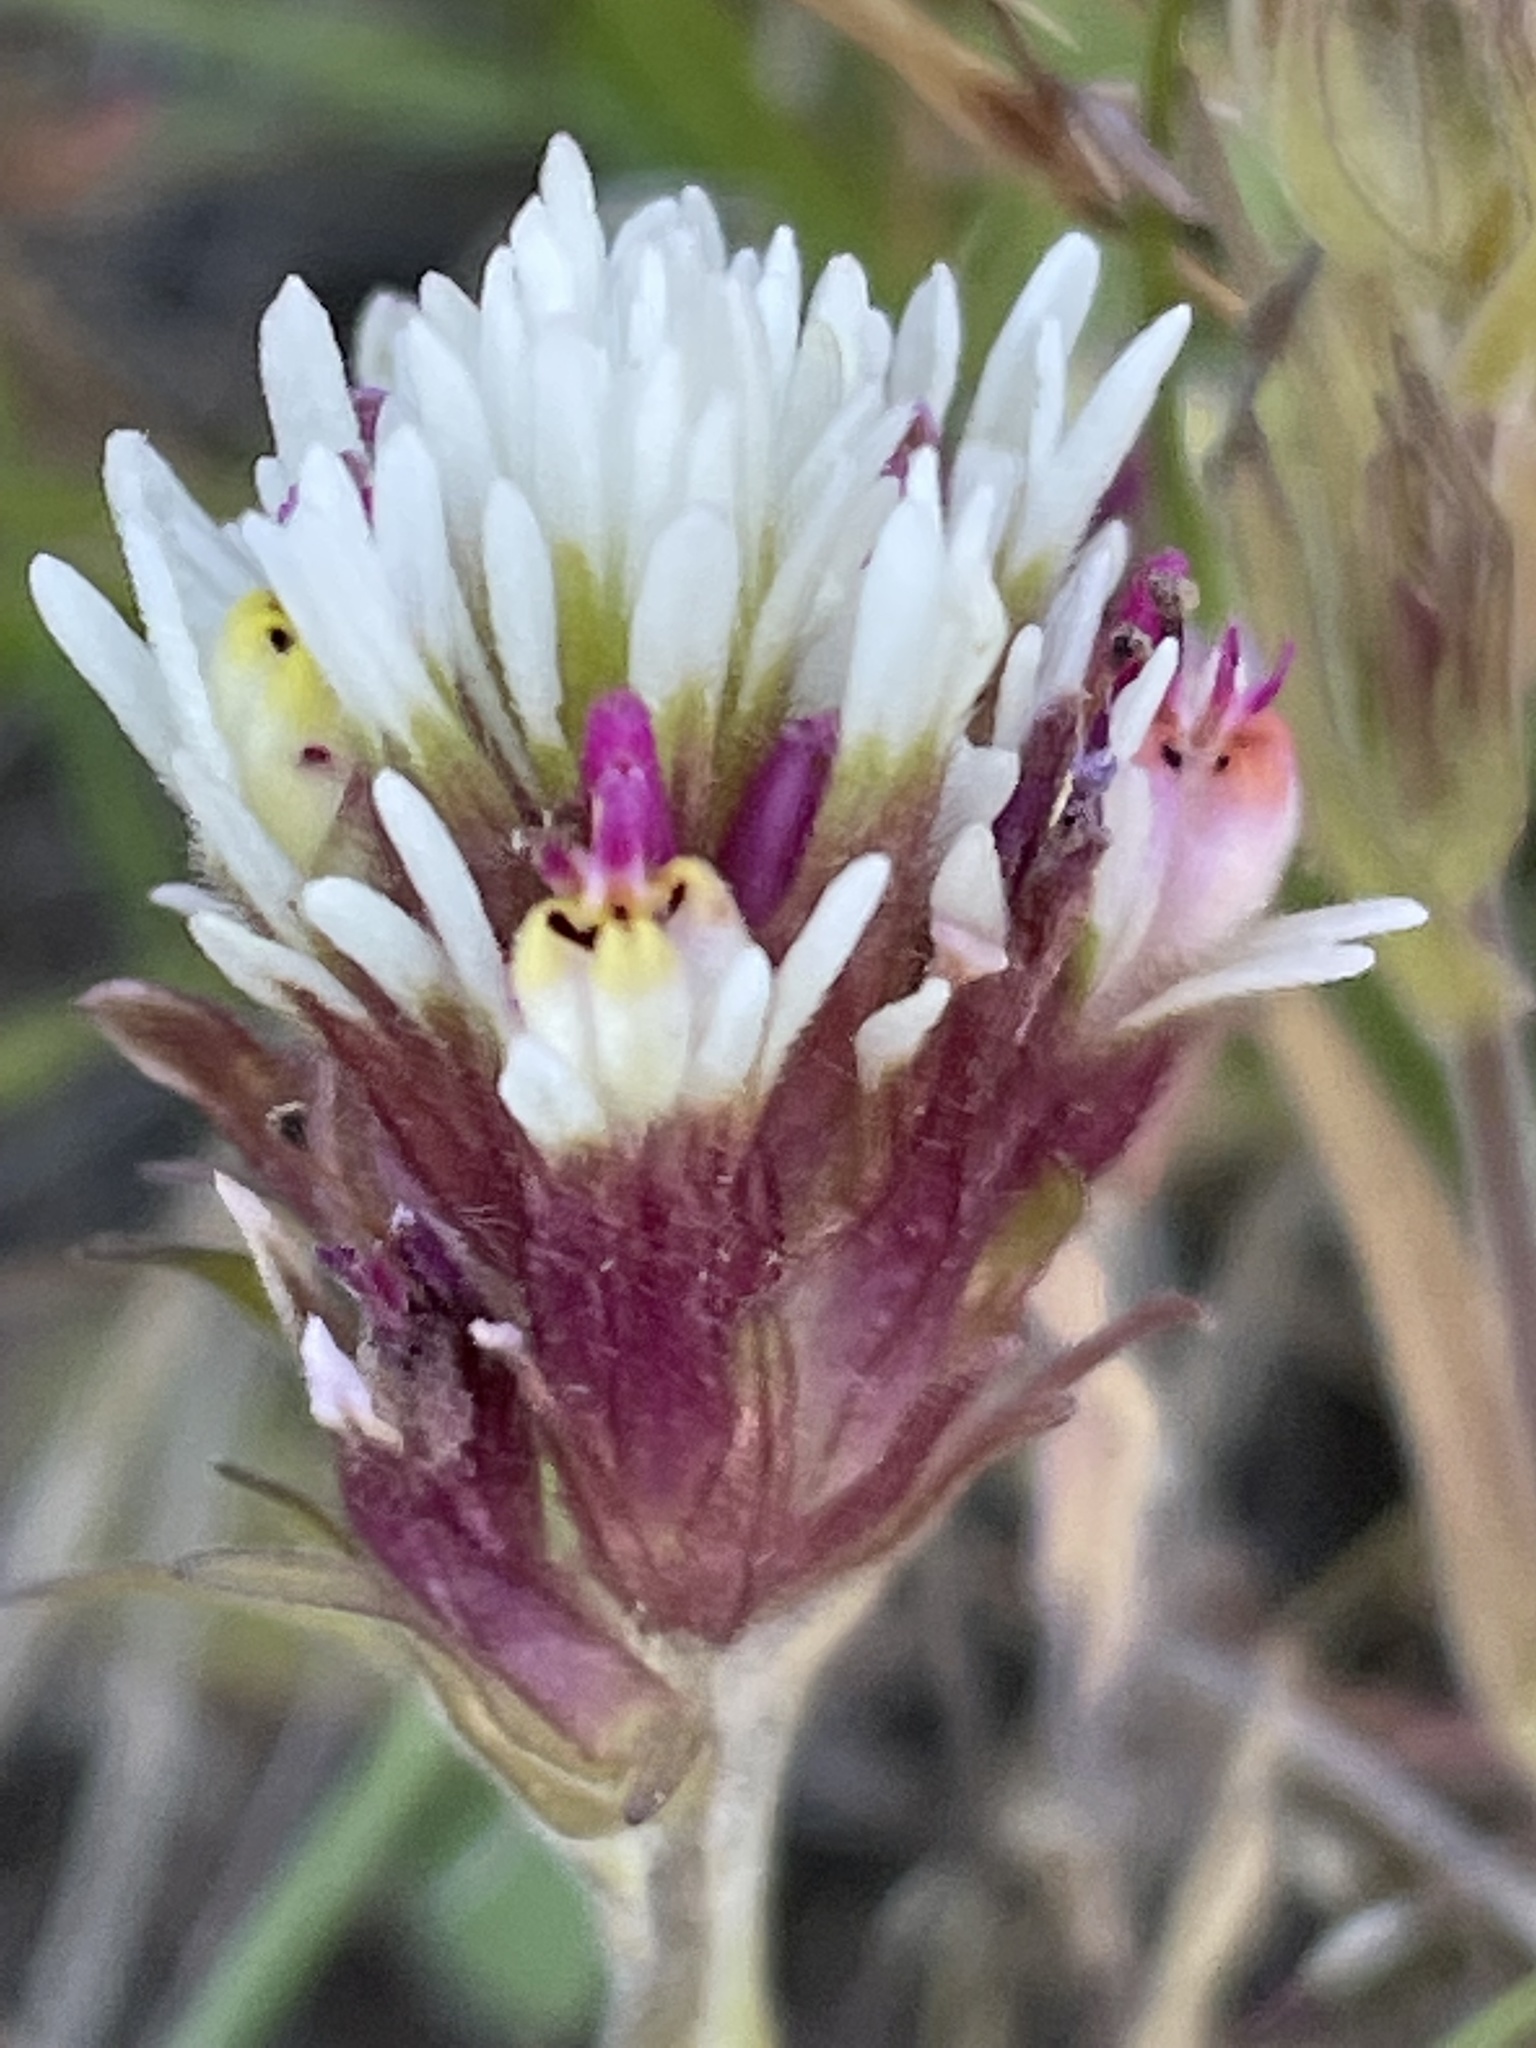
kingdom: Plantae
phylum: Tracheophyta
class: Magnoliopsida
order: Lamiales
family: Orobanchaceae
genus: Castilleja
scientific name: Castilleja densiflora
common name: Dense-flower indian paintbrush
